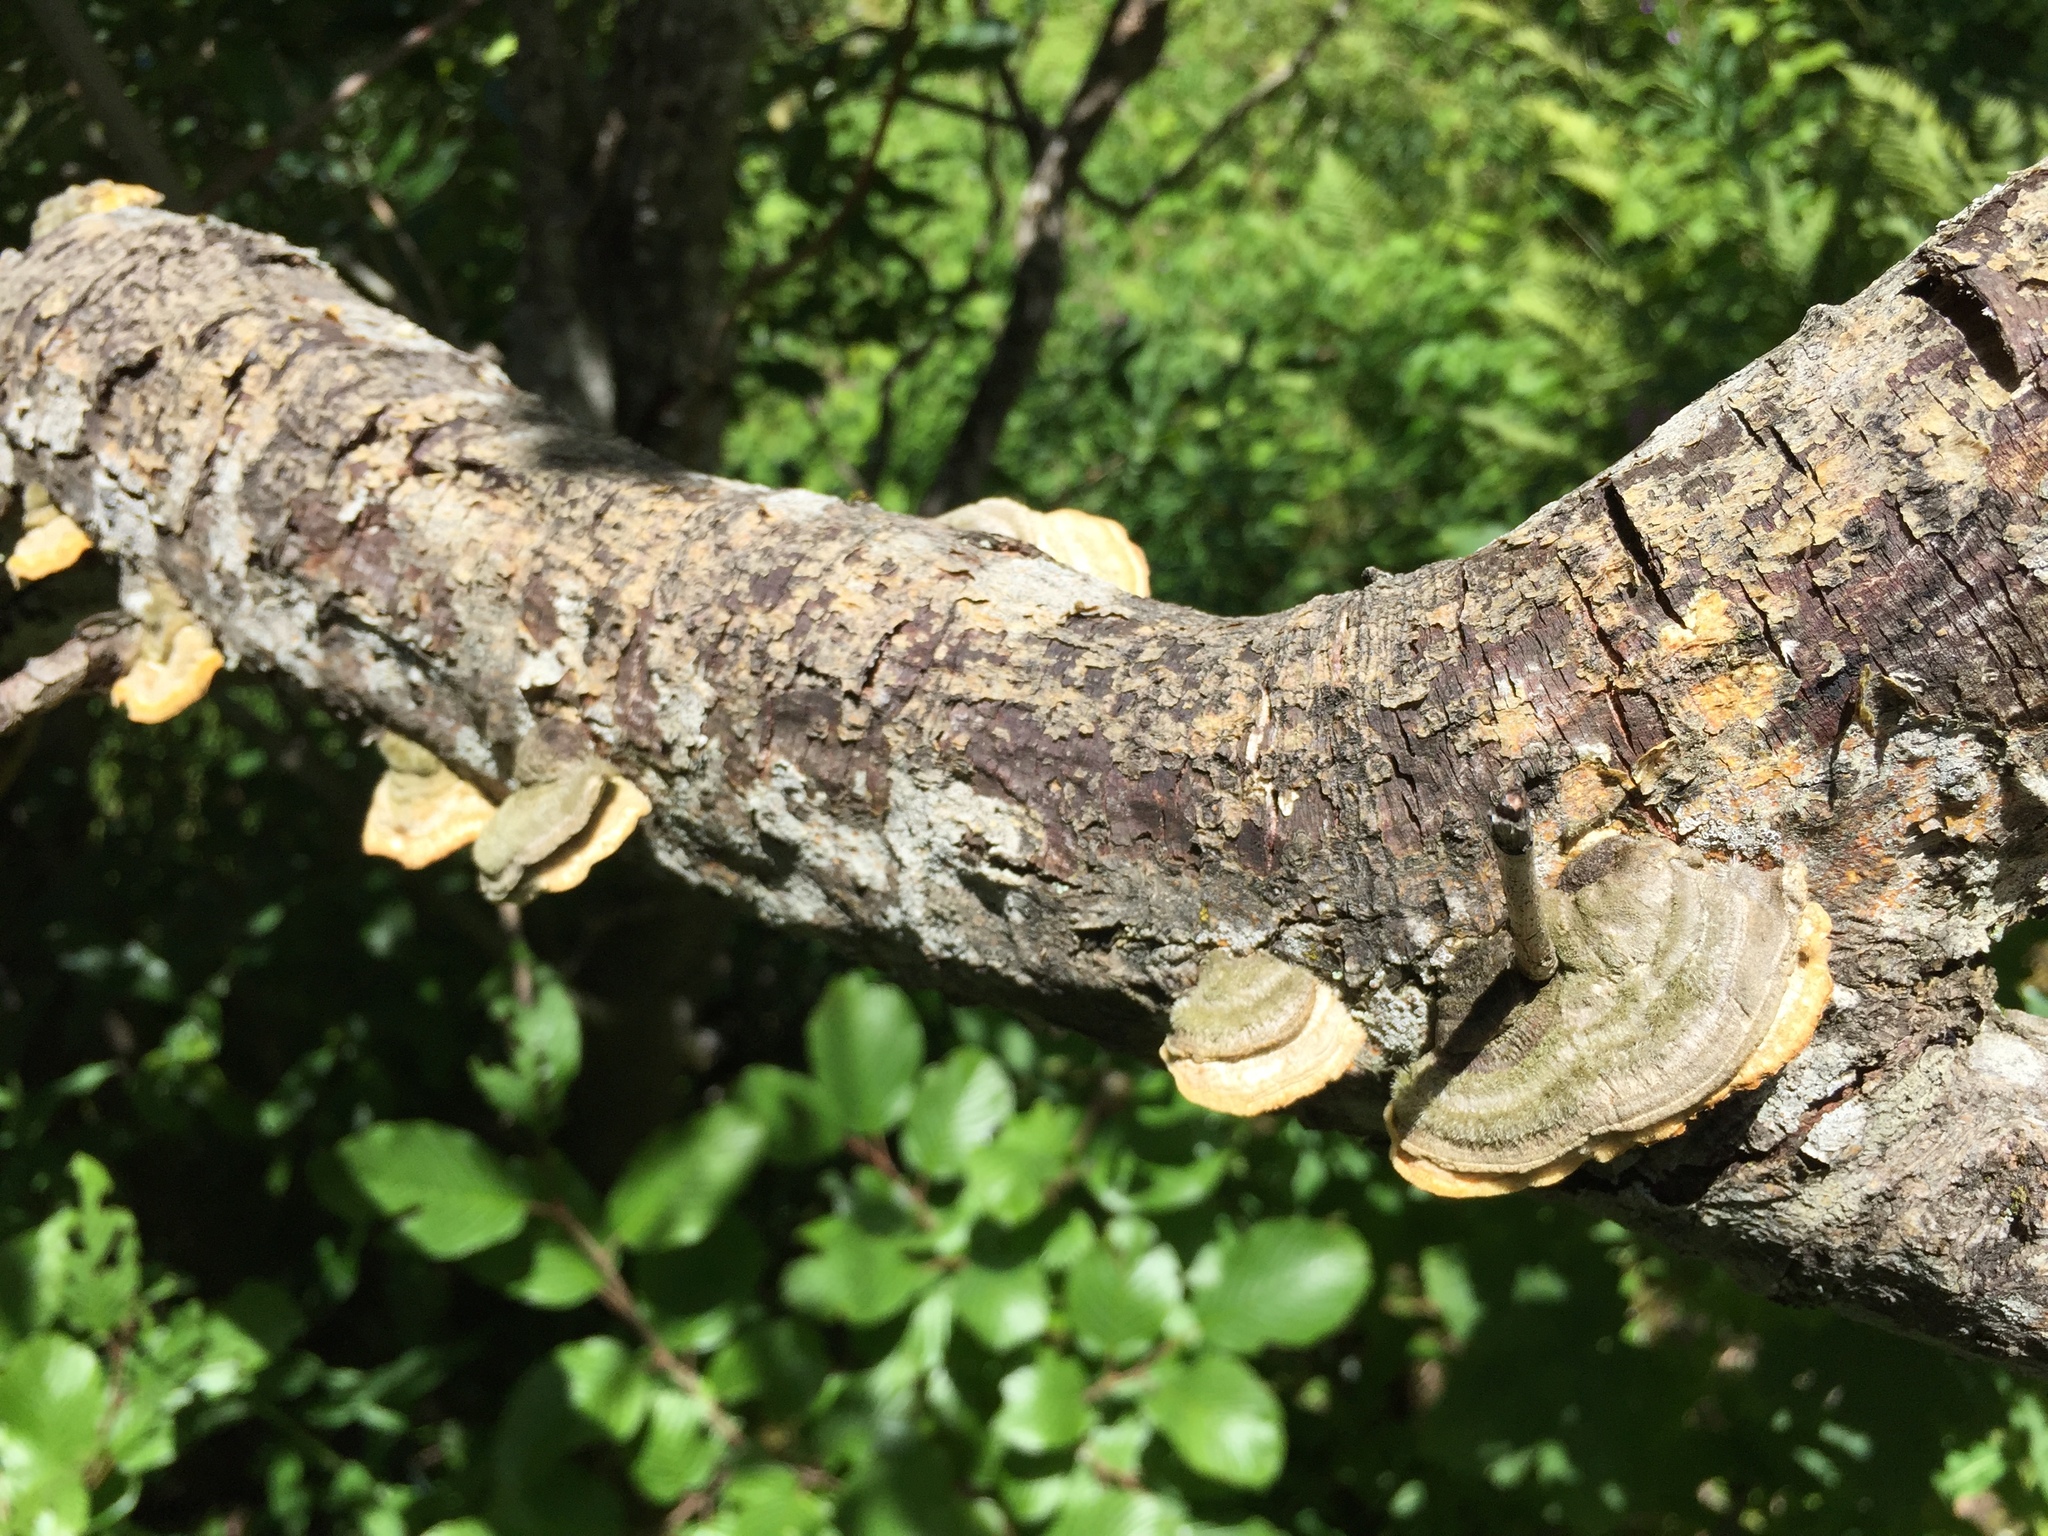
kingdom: Fungi
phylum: Basidiomycota
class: Agaricomycetes
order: Polyporales
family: Polyporaceae
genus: Trametes
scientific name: Trametes hirsuta
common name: Hairy bracket
